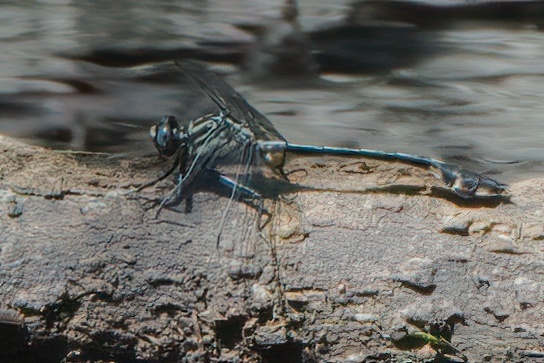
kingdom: Animalia
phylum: Arthropoda
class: Insecta
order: Odonata
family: Gomphidae
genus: Gomphurus
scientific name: Gomphurus dilatatus
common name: Blackwater clubtail
